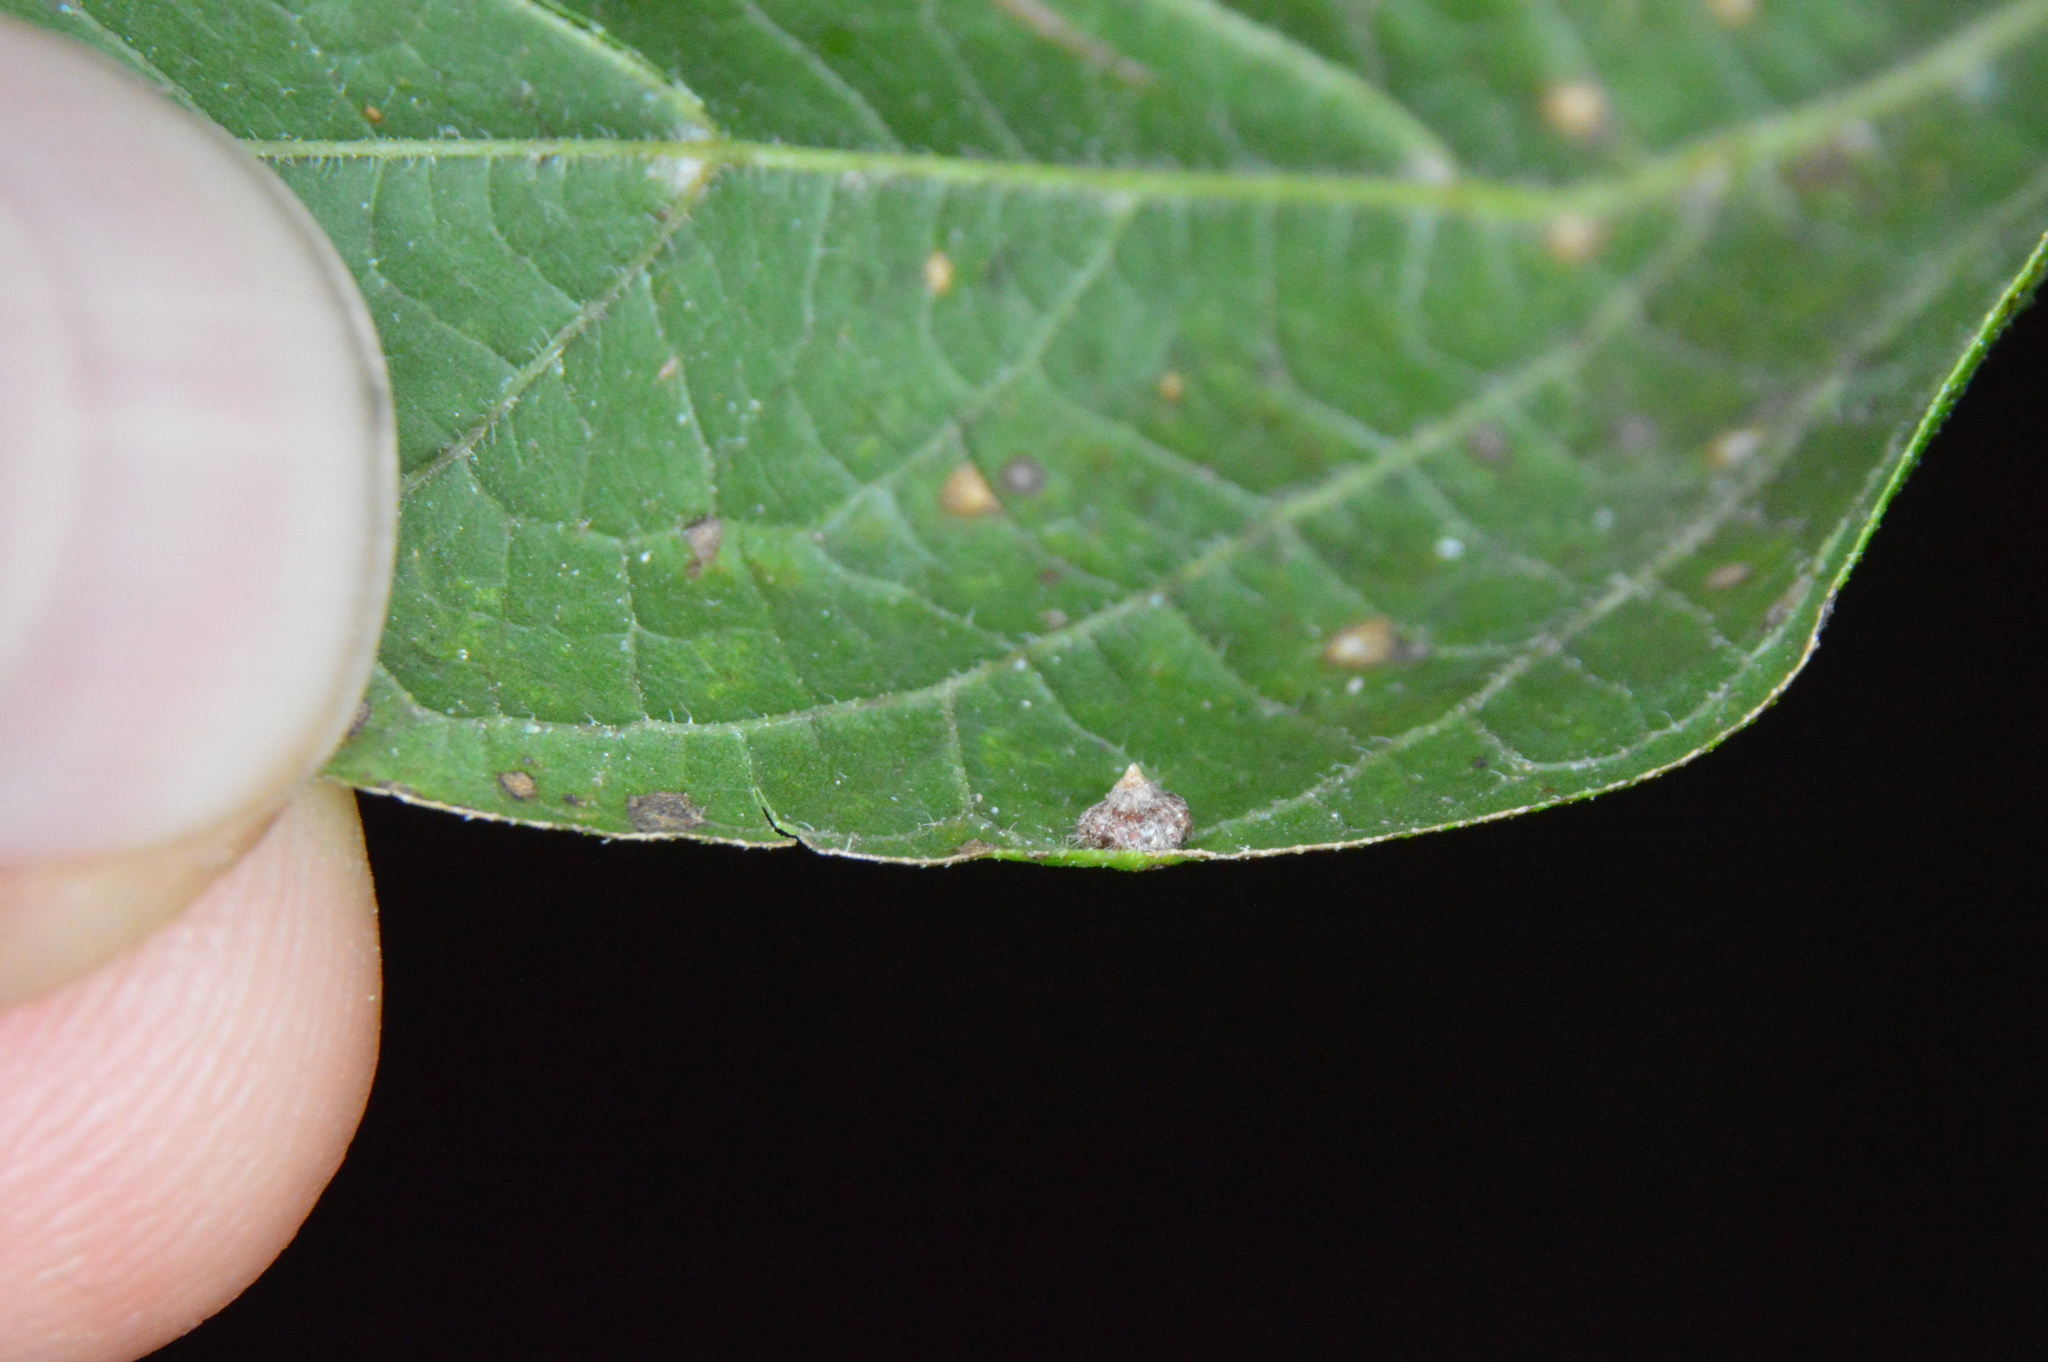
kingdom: Animalia
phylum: Arthropoda
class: Insecta
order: Diptera
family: Cecidomyiidae
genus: Celticecis
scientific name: Celticecis capsularis
